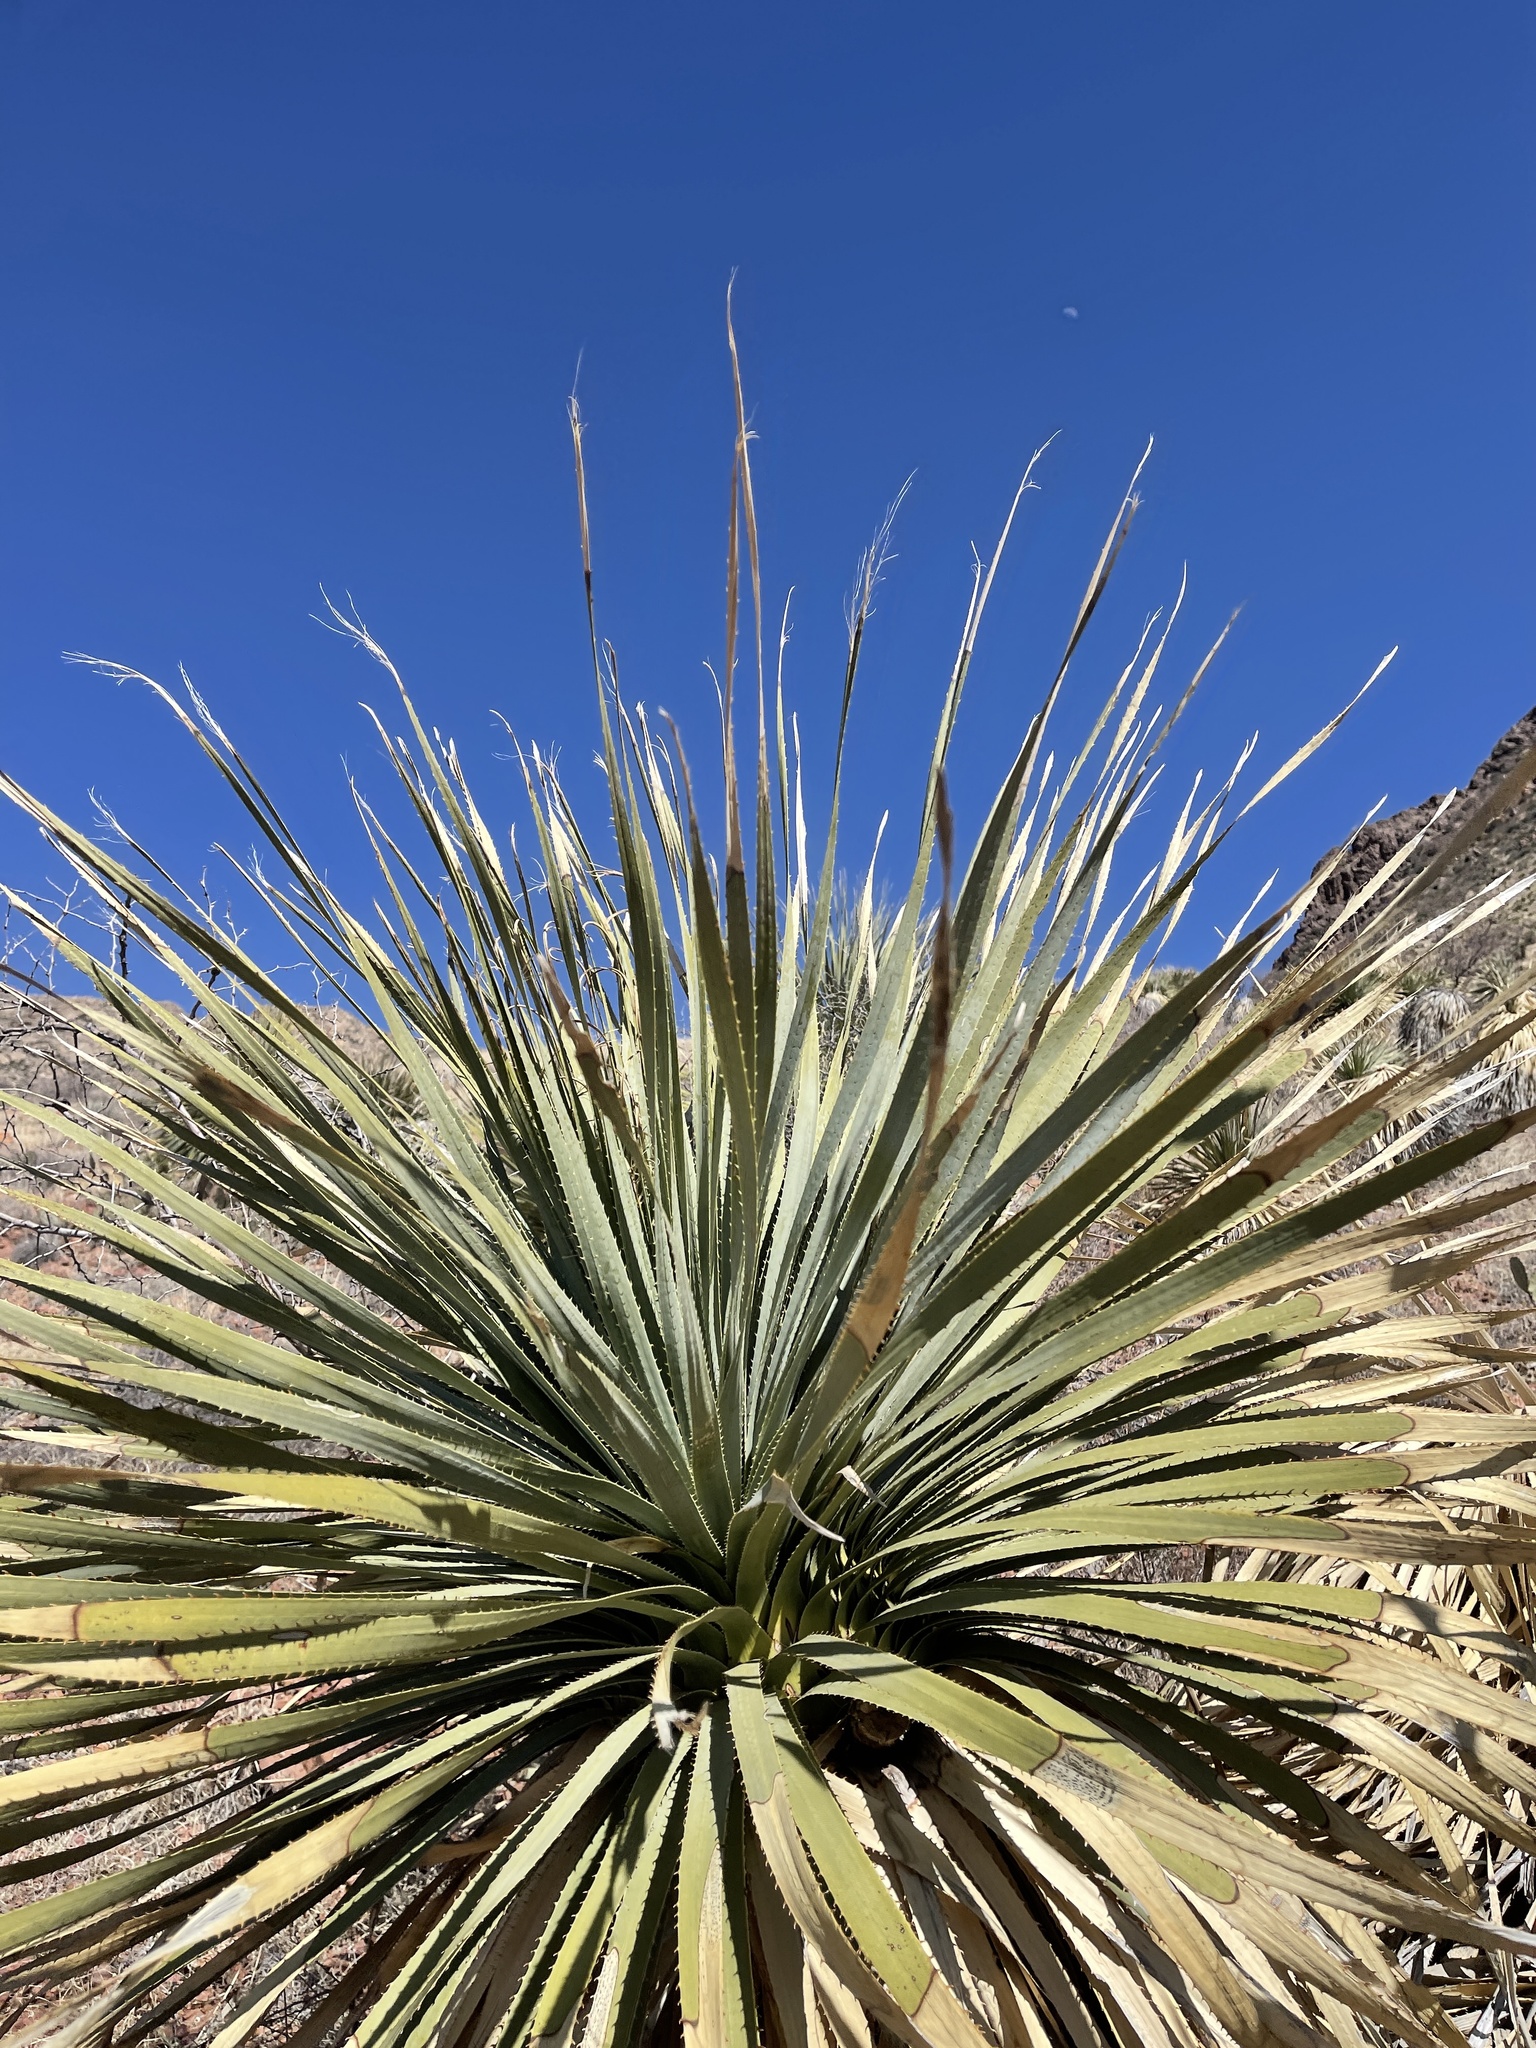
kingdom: Plantae
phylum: Tracheophyta
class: Liliopsida
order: Asparagales
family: Asparagaceae
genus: Dasylirion
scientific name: Dasylirion wheeleri
